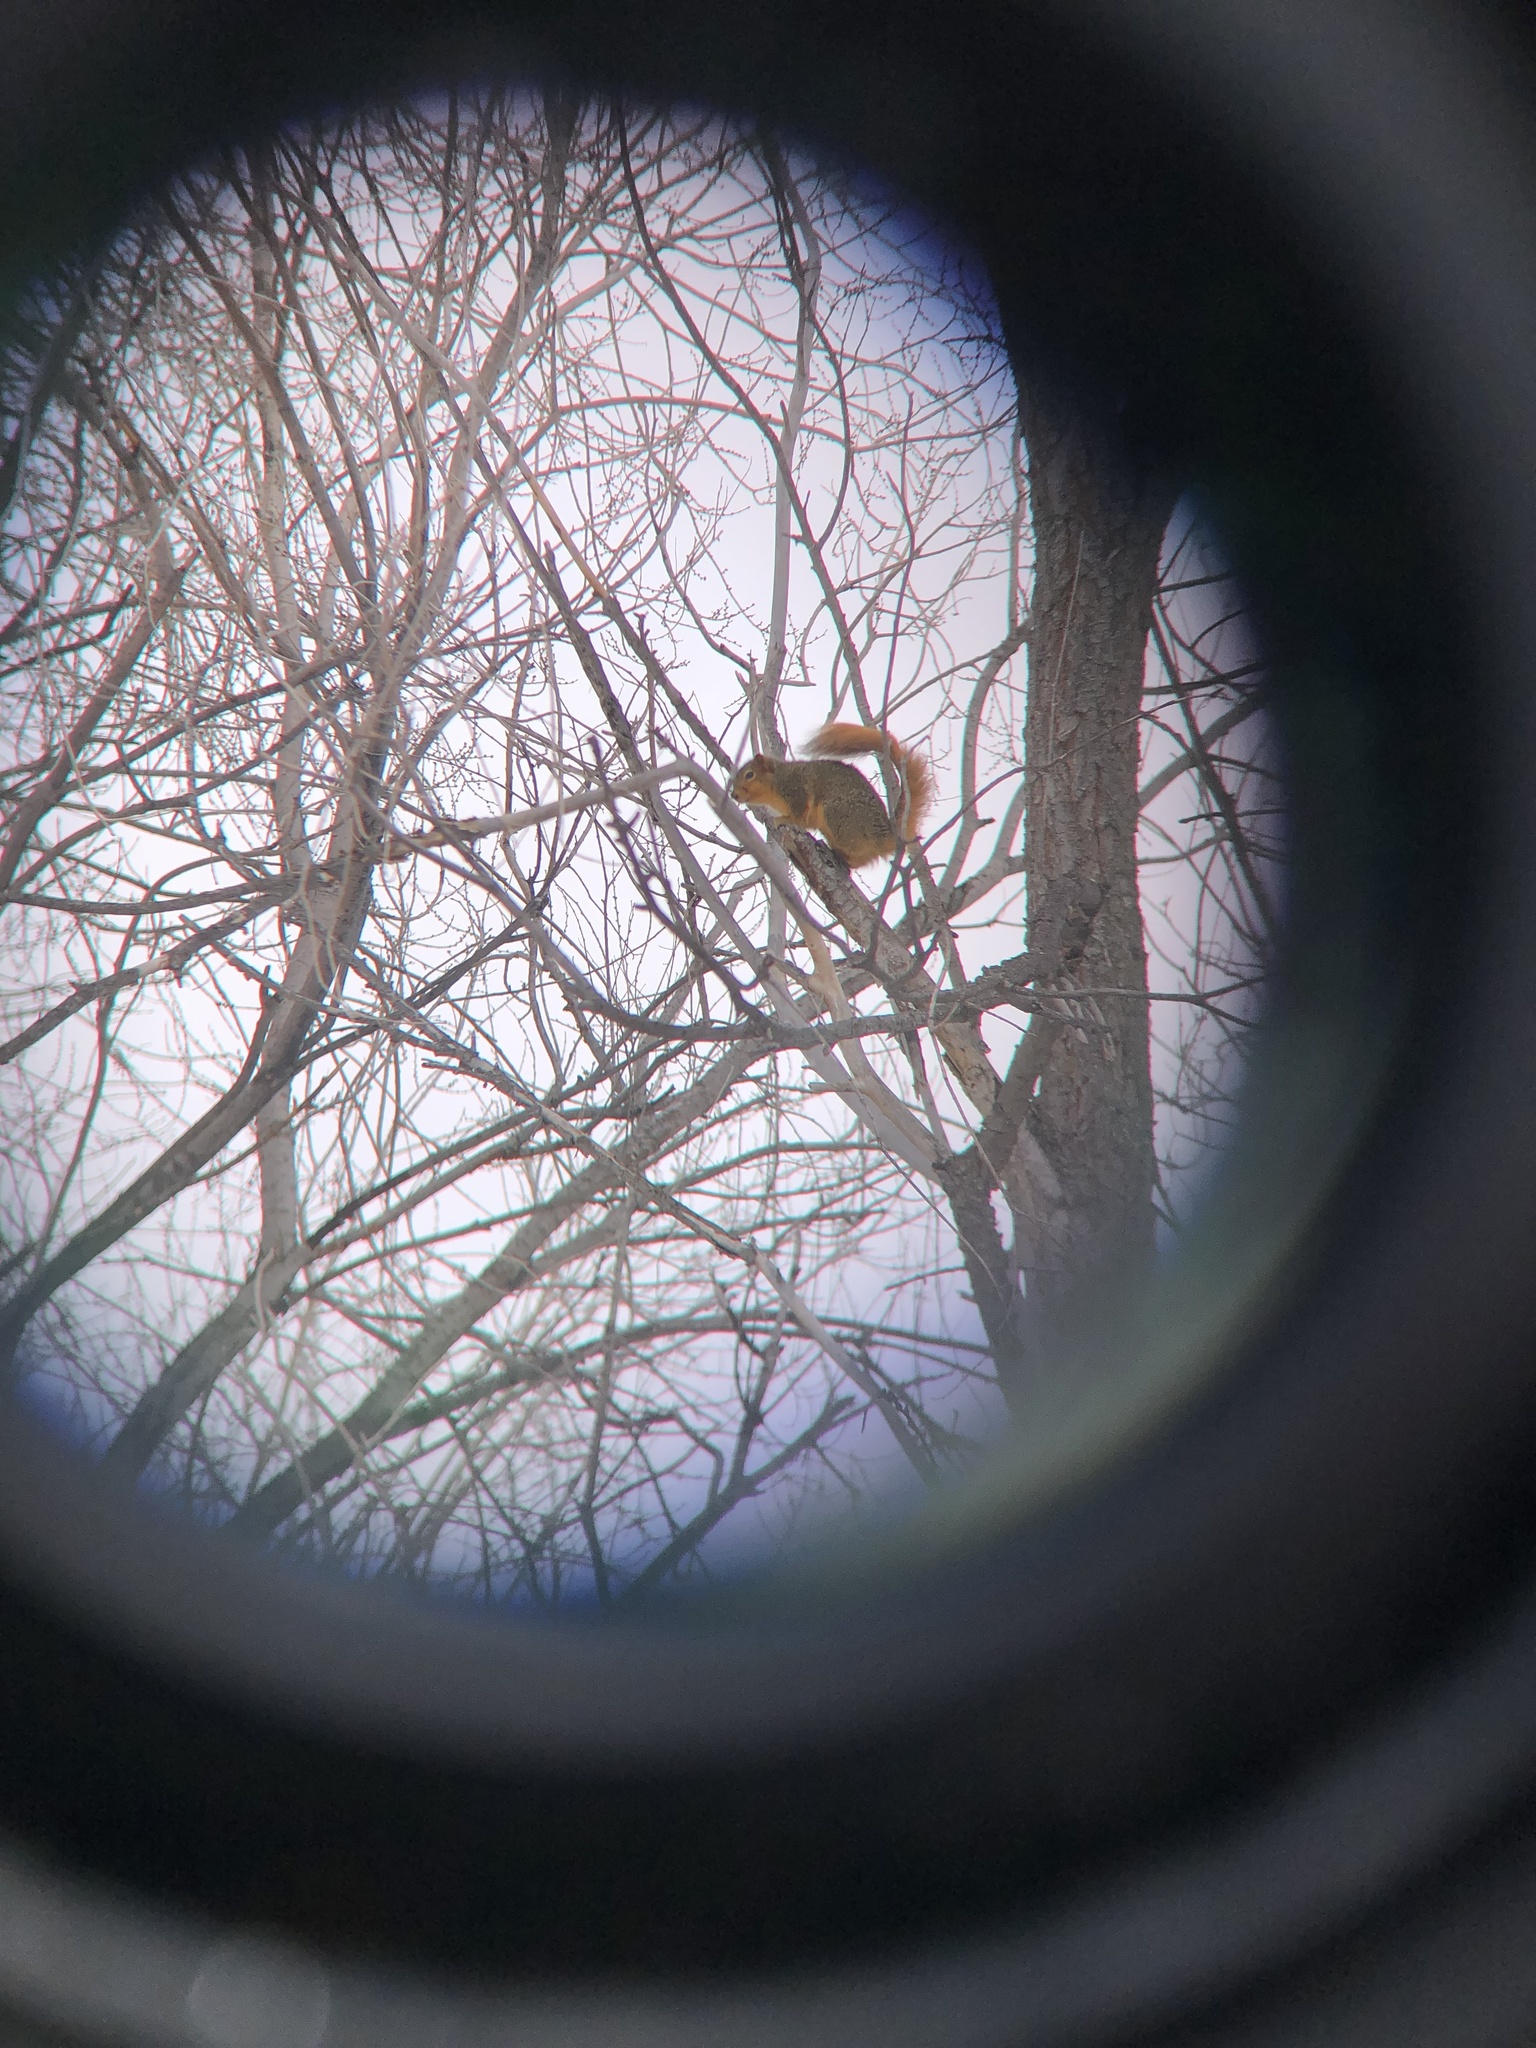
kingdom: Animalia
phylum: Chordata
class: Mammalia
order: Rodentia
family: Sciuridae
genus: Sciurus
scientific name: Sciurus niger
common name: Fox squirrel
